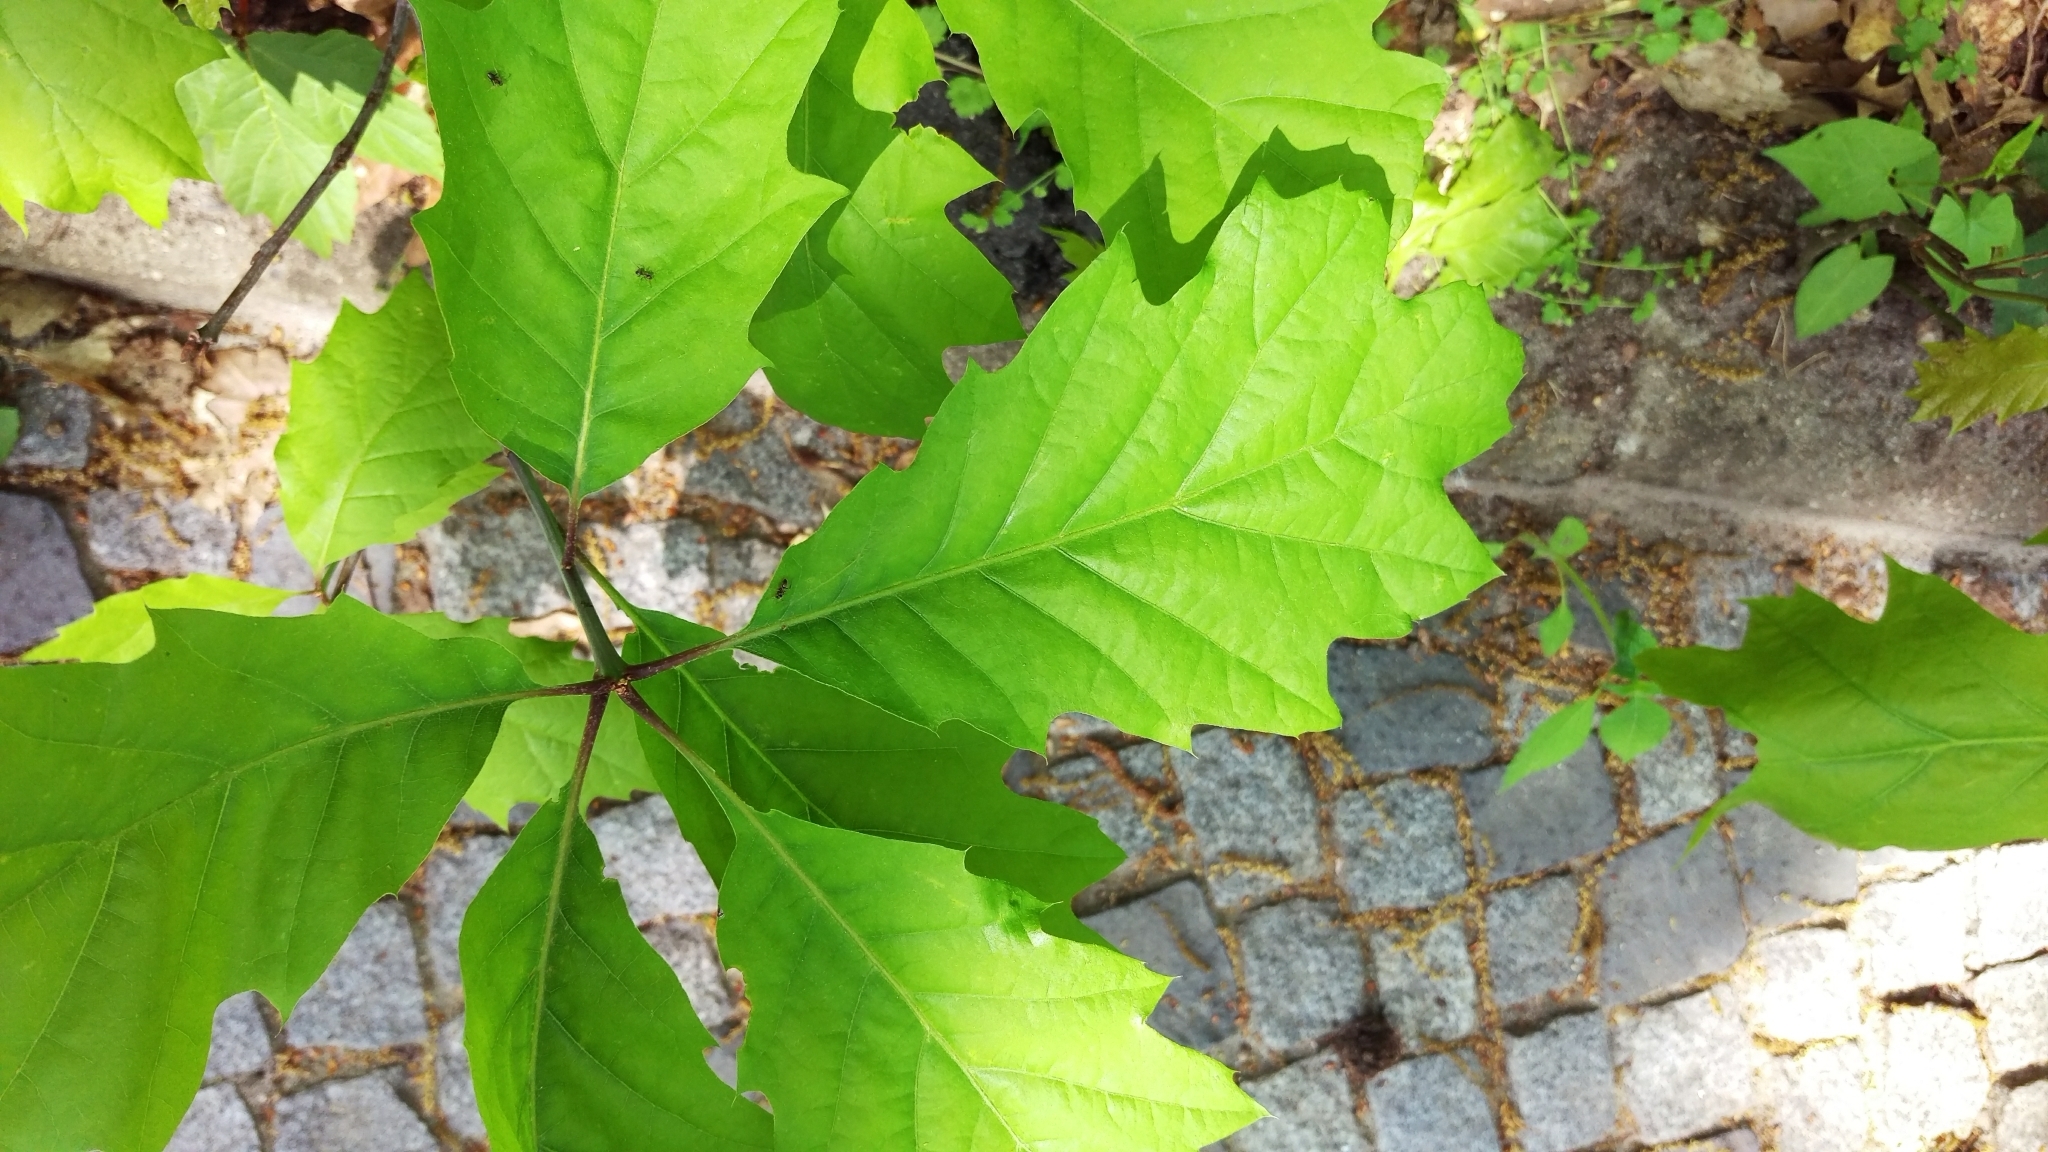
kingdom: Plantae
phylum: Tracheophyta
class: Magnoliopsida
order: Fagales
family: Fagaceae
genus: Quercus
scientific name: Quercus rubra
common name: Red oak
